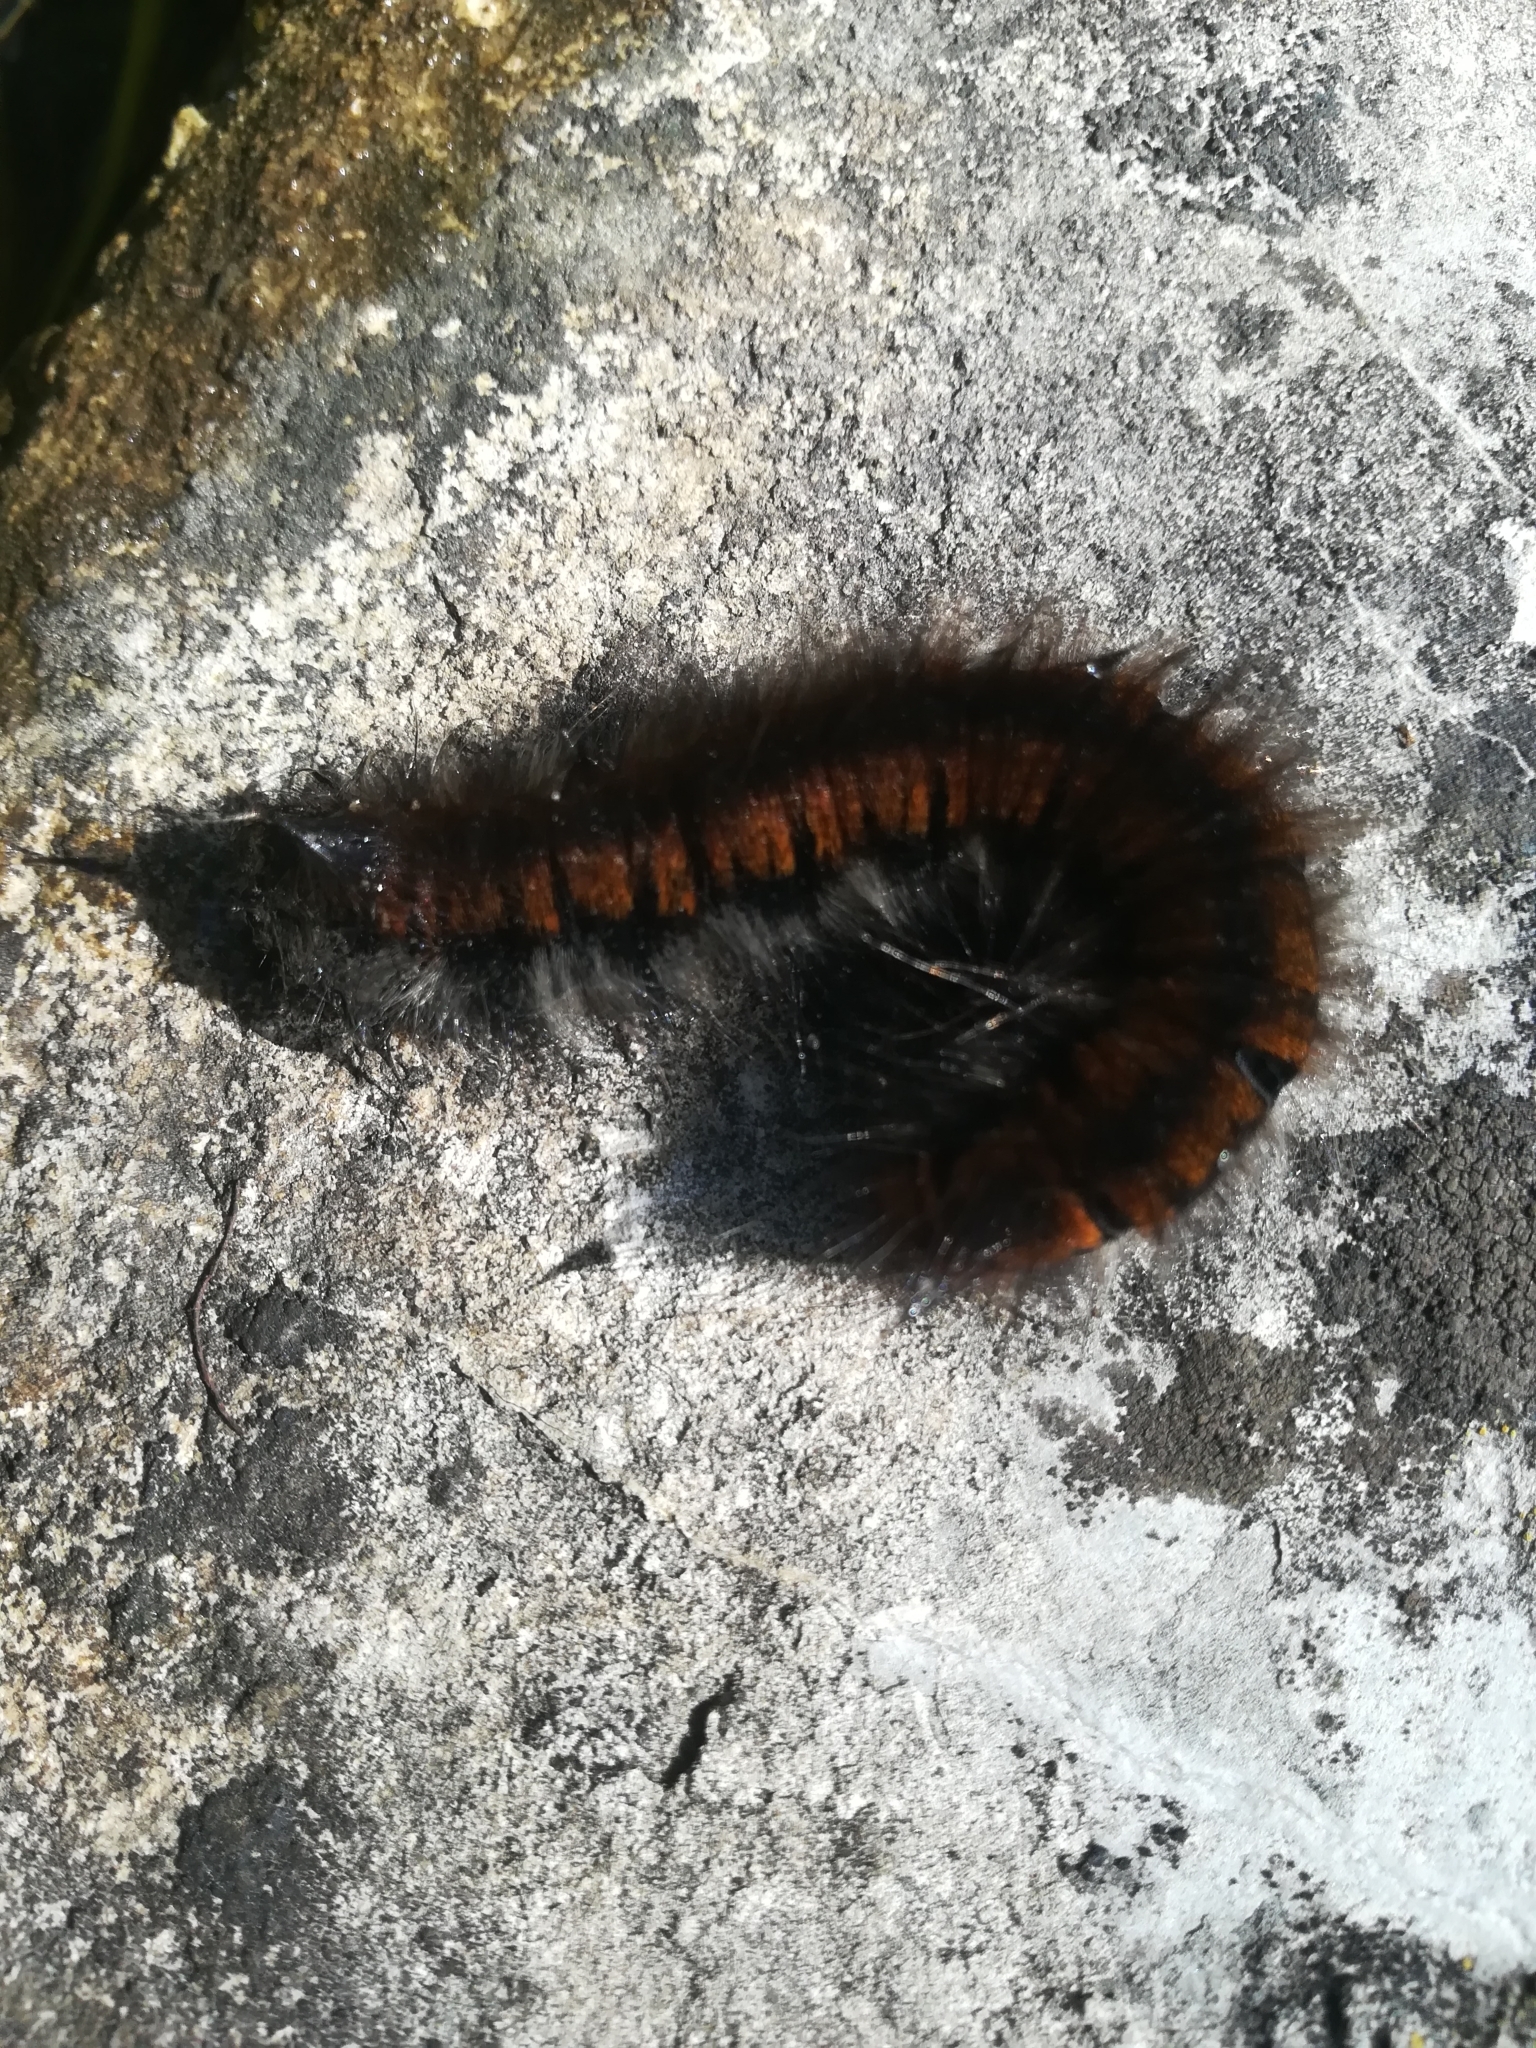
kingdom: Animalia
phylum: Arthropoda
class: Insecta
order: Lepidoptera
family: Lasiocampidae
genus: Macrothylacia
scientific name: Macrothylacia rubi
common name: Fox moth
